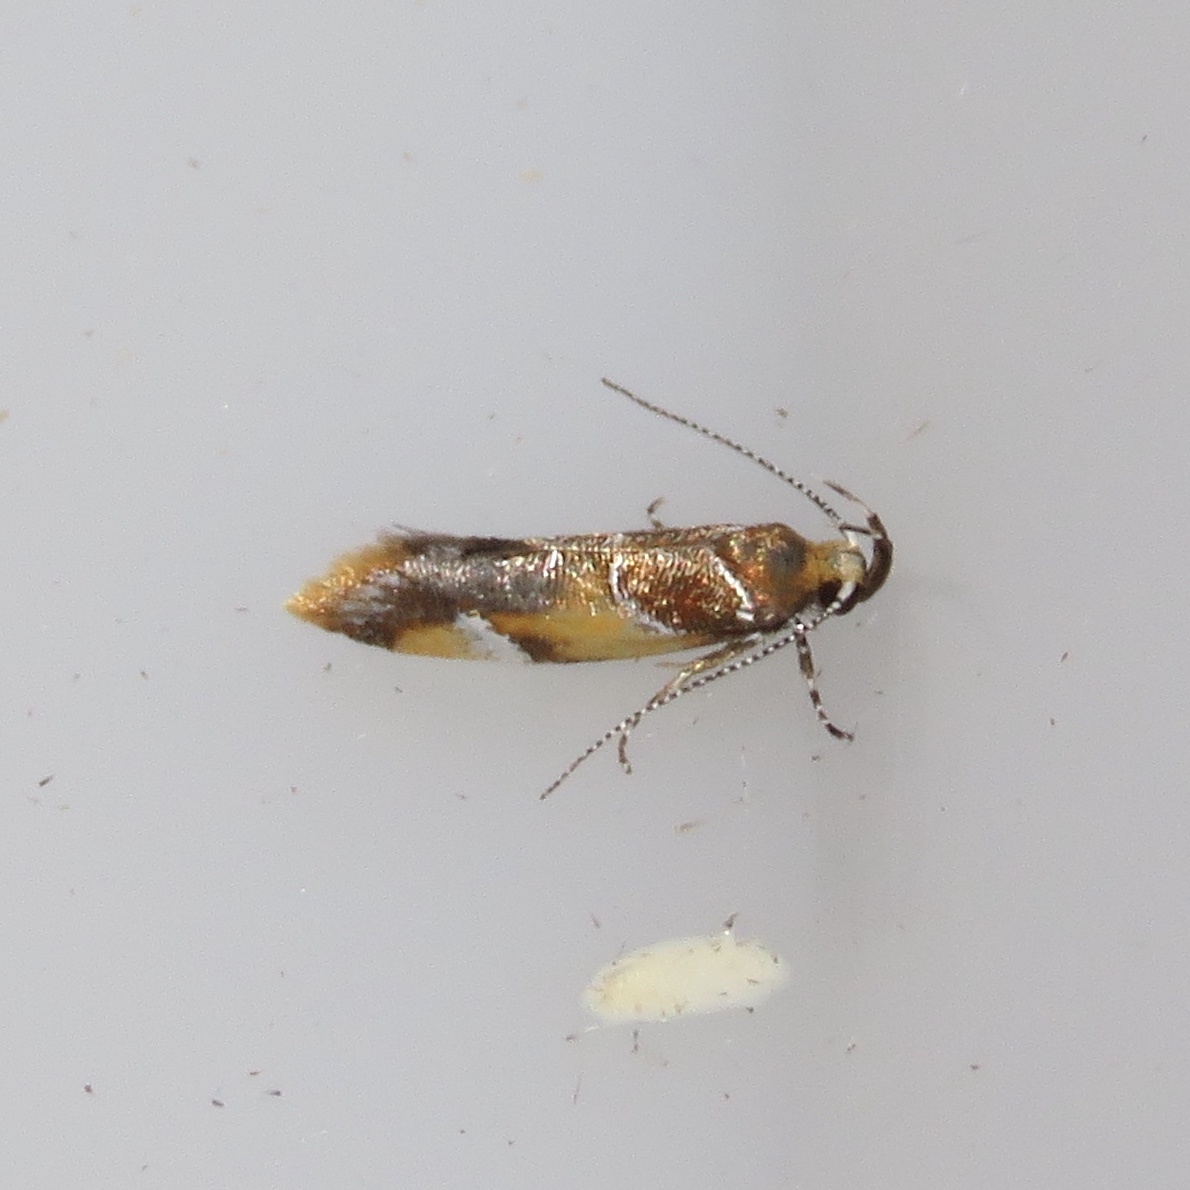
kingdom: Animalia
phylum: Arthropoda
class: Insecta
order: Lepidoptera
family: Oecophoridae
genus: Callima
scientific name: Callima argenticinctella
